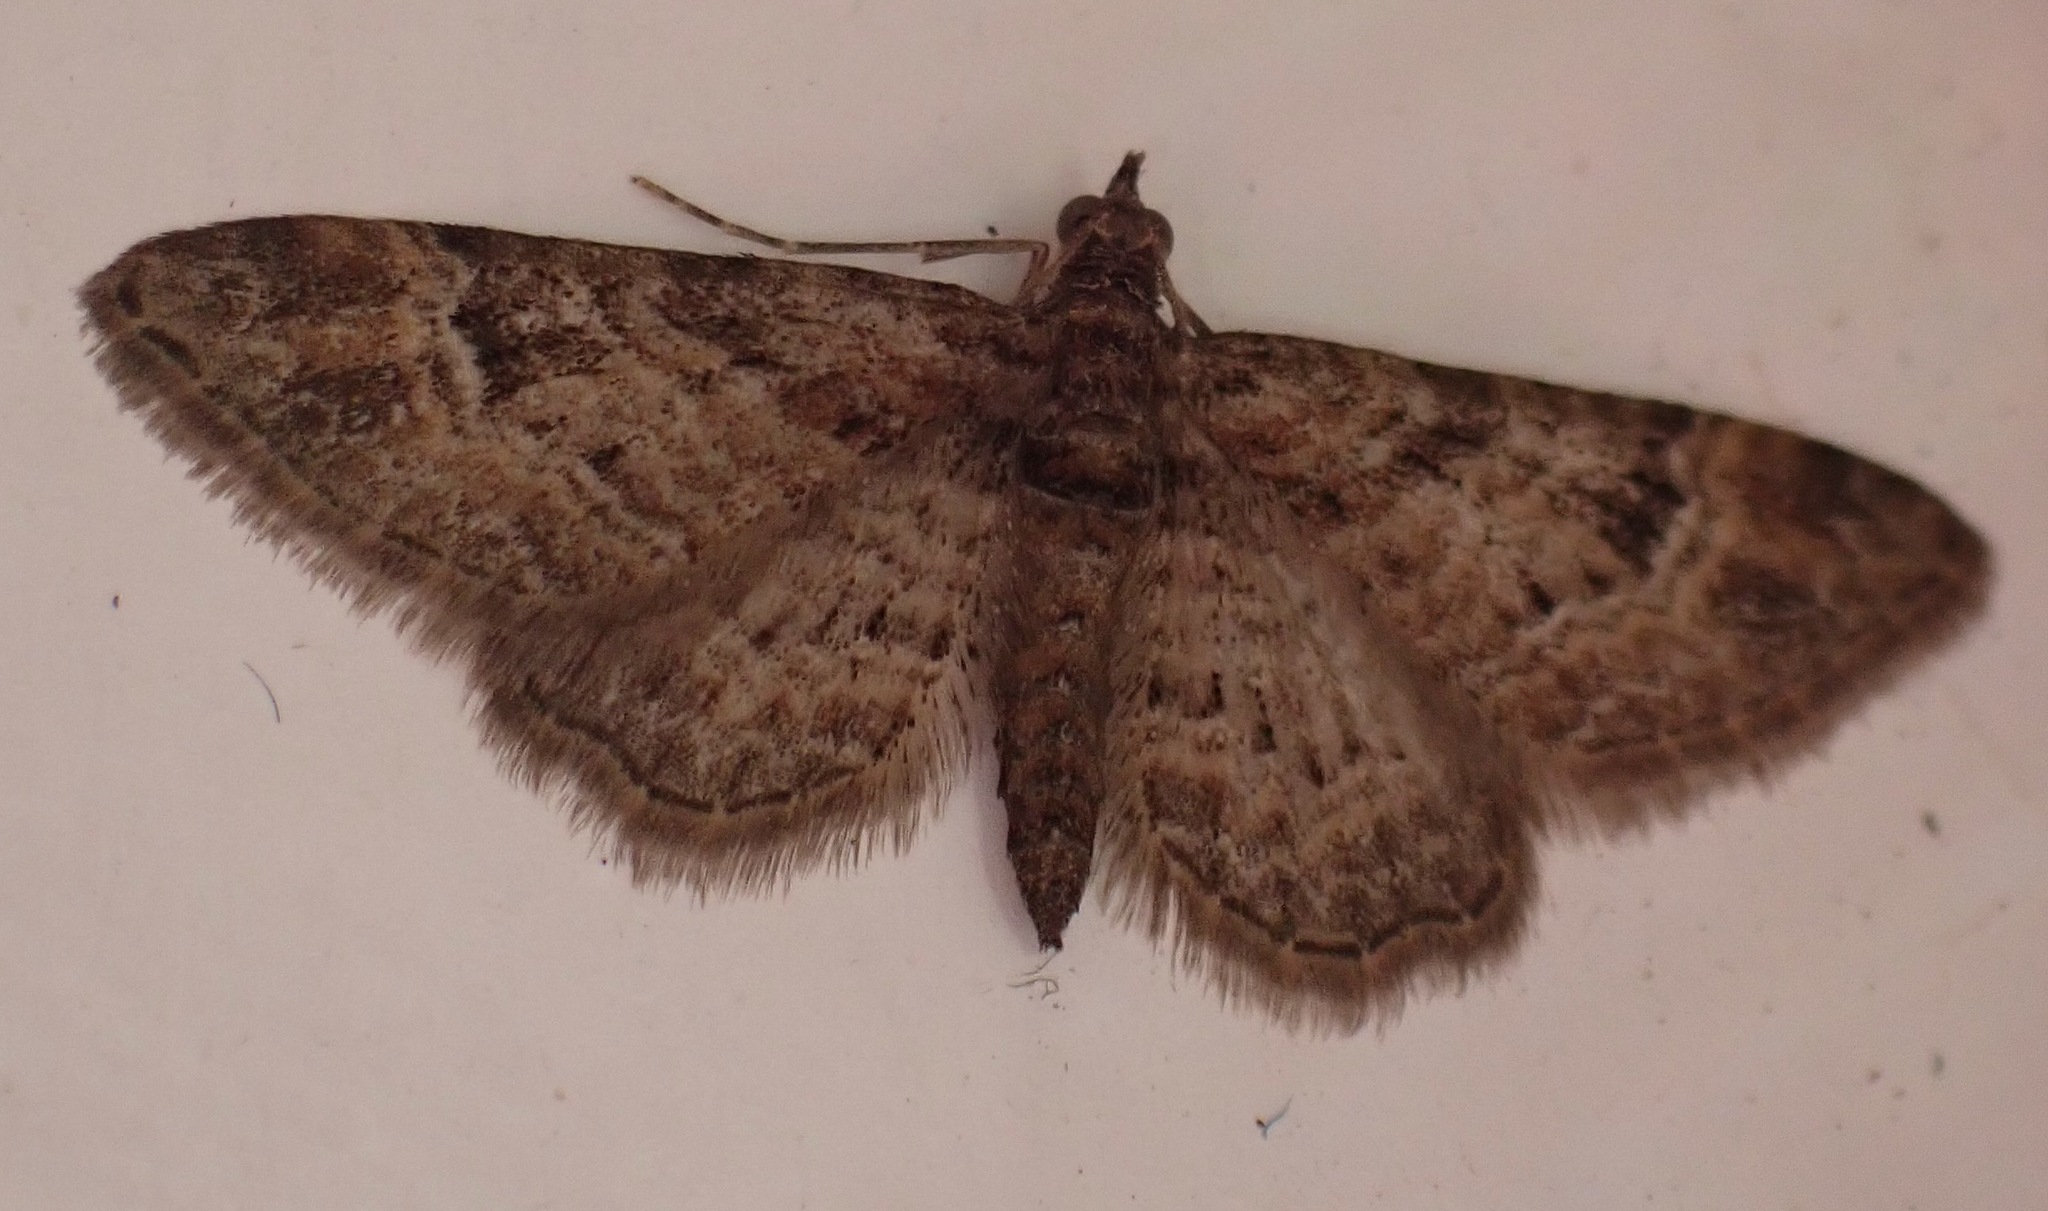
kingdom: Animalia
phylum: Arthropoda
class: Insecta
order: Lepidoptera
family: Geometridae
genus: Gymnoscelis
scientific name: Gymnoscelis rufifasciata
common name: Double-striped pug
